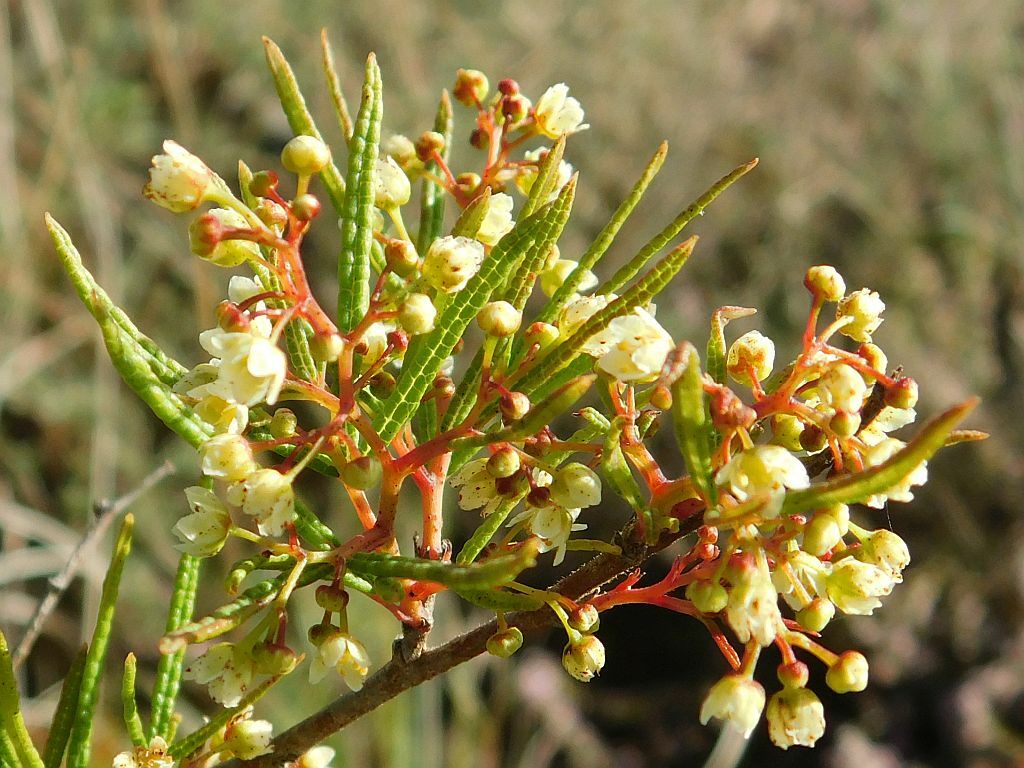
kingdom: Plantae
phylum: Tracheophyta
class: Magnoliopsida
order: Sapindales
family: Anacardiaceae
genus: Searsia
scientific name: Searsia rosmarinifolia
